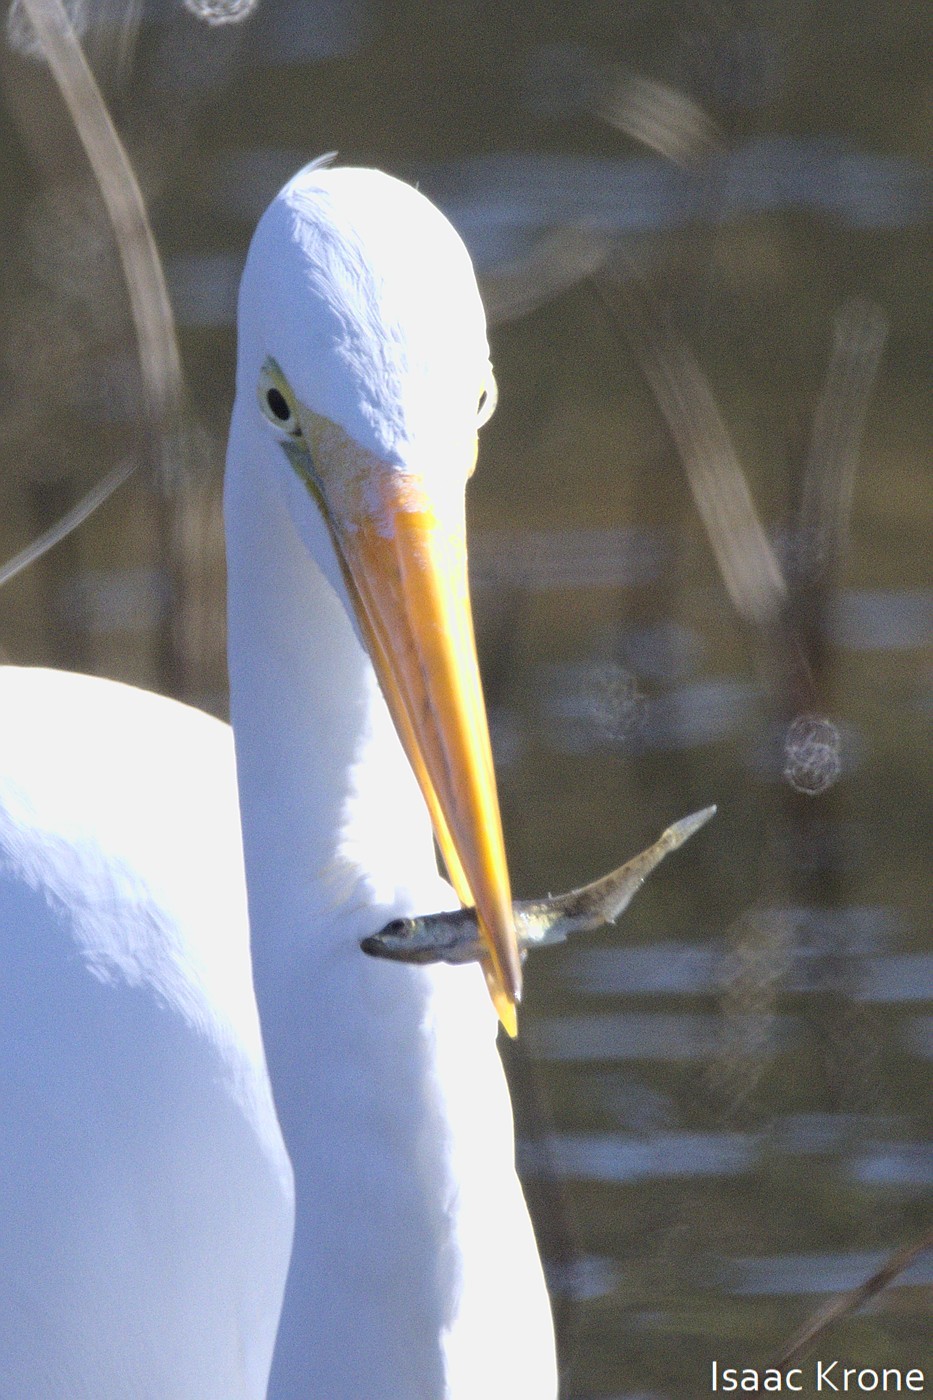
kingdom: Animalia
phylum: Chordata
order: Gasterosteiformes
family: Gasterosteidae
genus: Gasterosteus
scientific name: Gasterosteus aculeatus
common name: Three-spined stickleback
